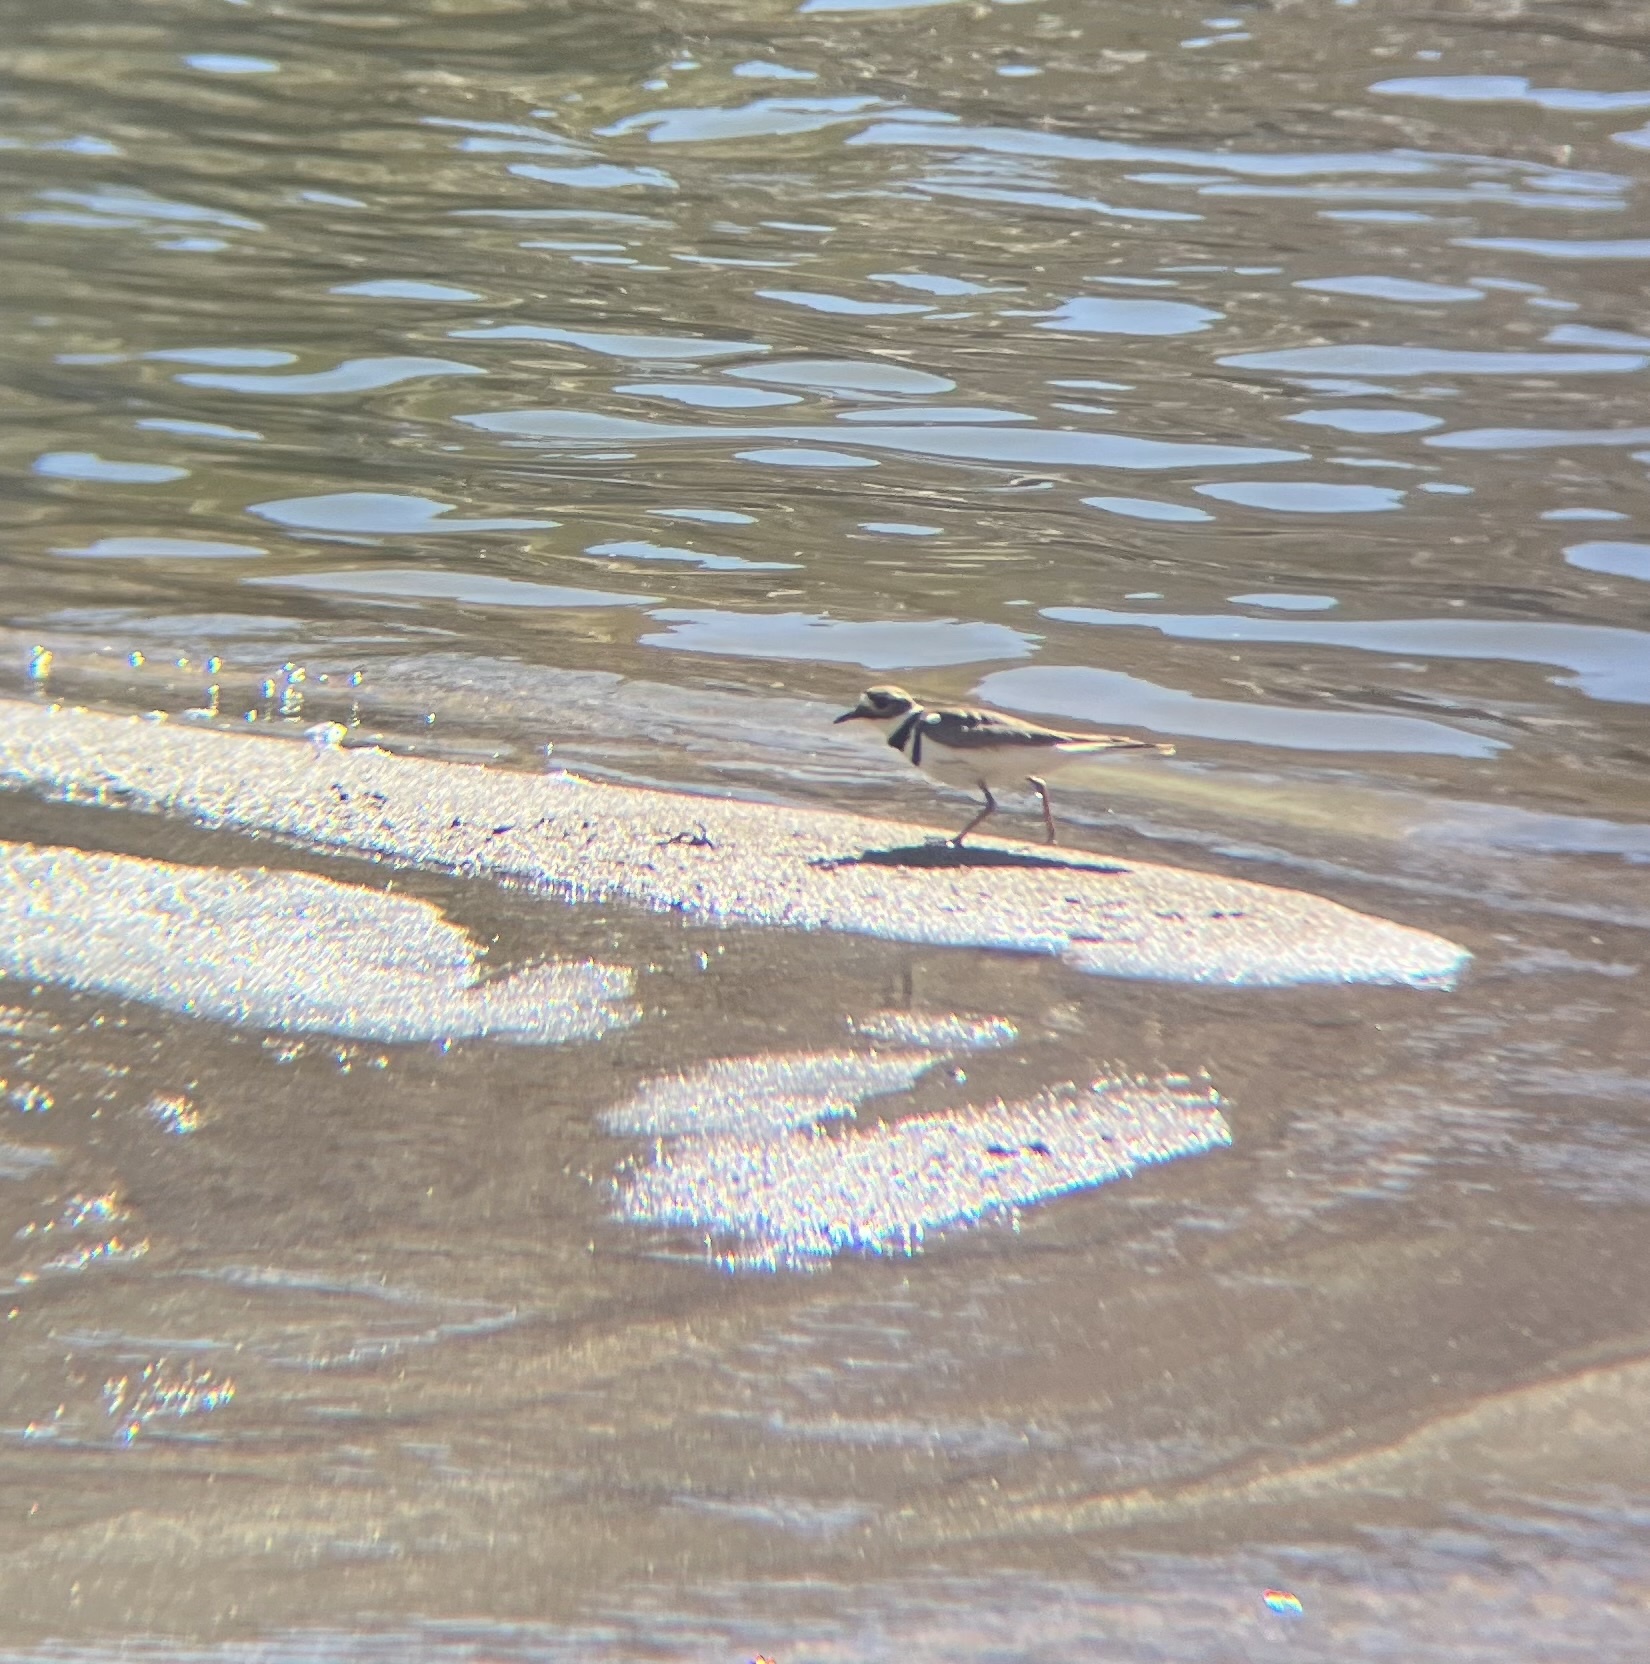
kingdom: Animalia
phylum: Chordata
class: Aves
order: Charadriiformes
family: Charadriidae
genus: Charadrius
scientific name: Charadrius vociferus
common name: Killdeer
